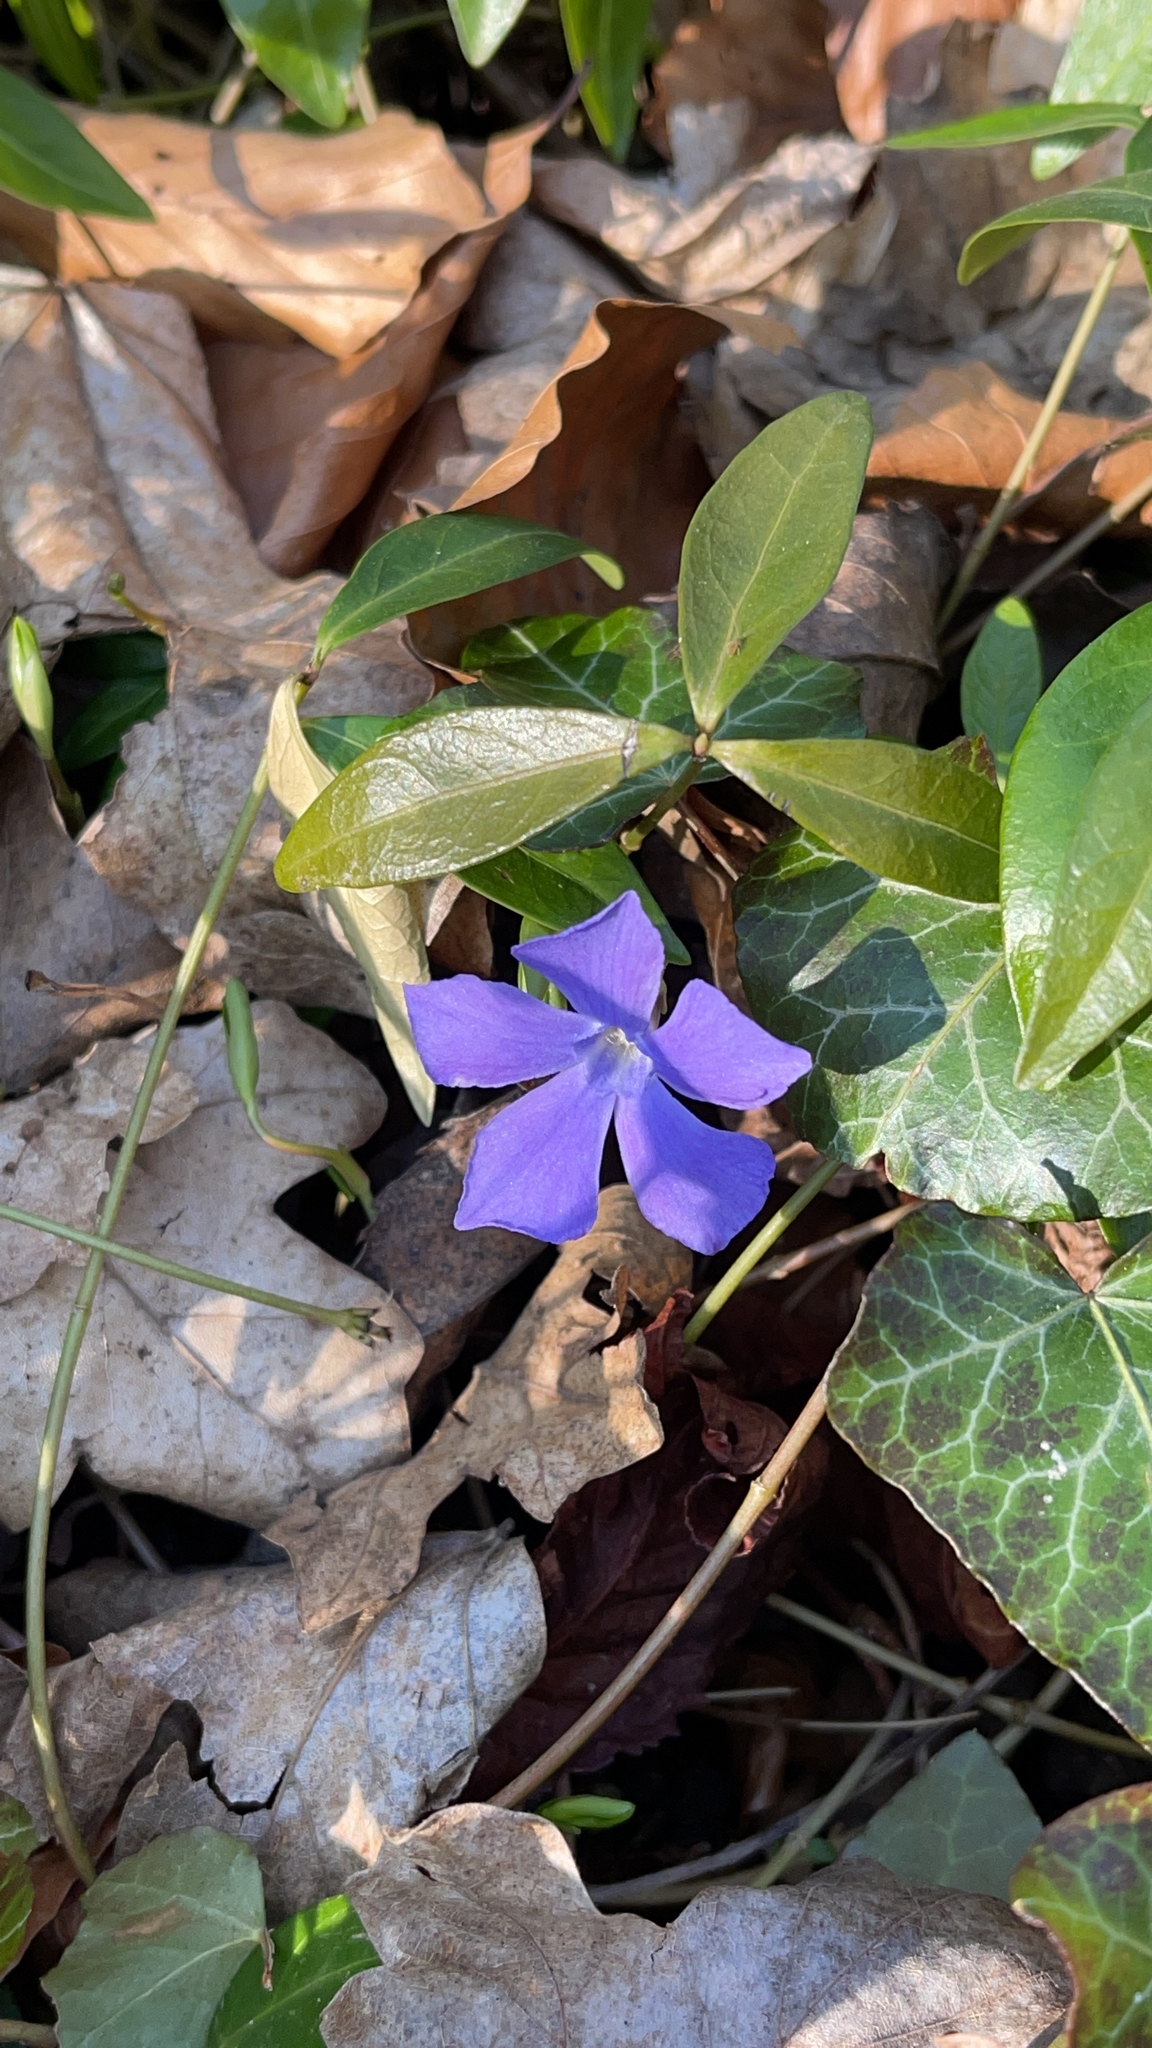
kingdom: Plantae
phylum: Tracheophyta
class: Magnoliopsida
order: Gentianales
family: Apocynaceae
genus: Vinca
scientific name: Vinca minor
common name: Lesser periwinkle
